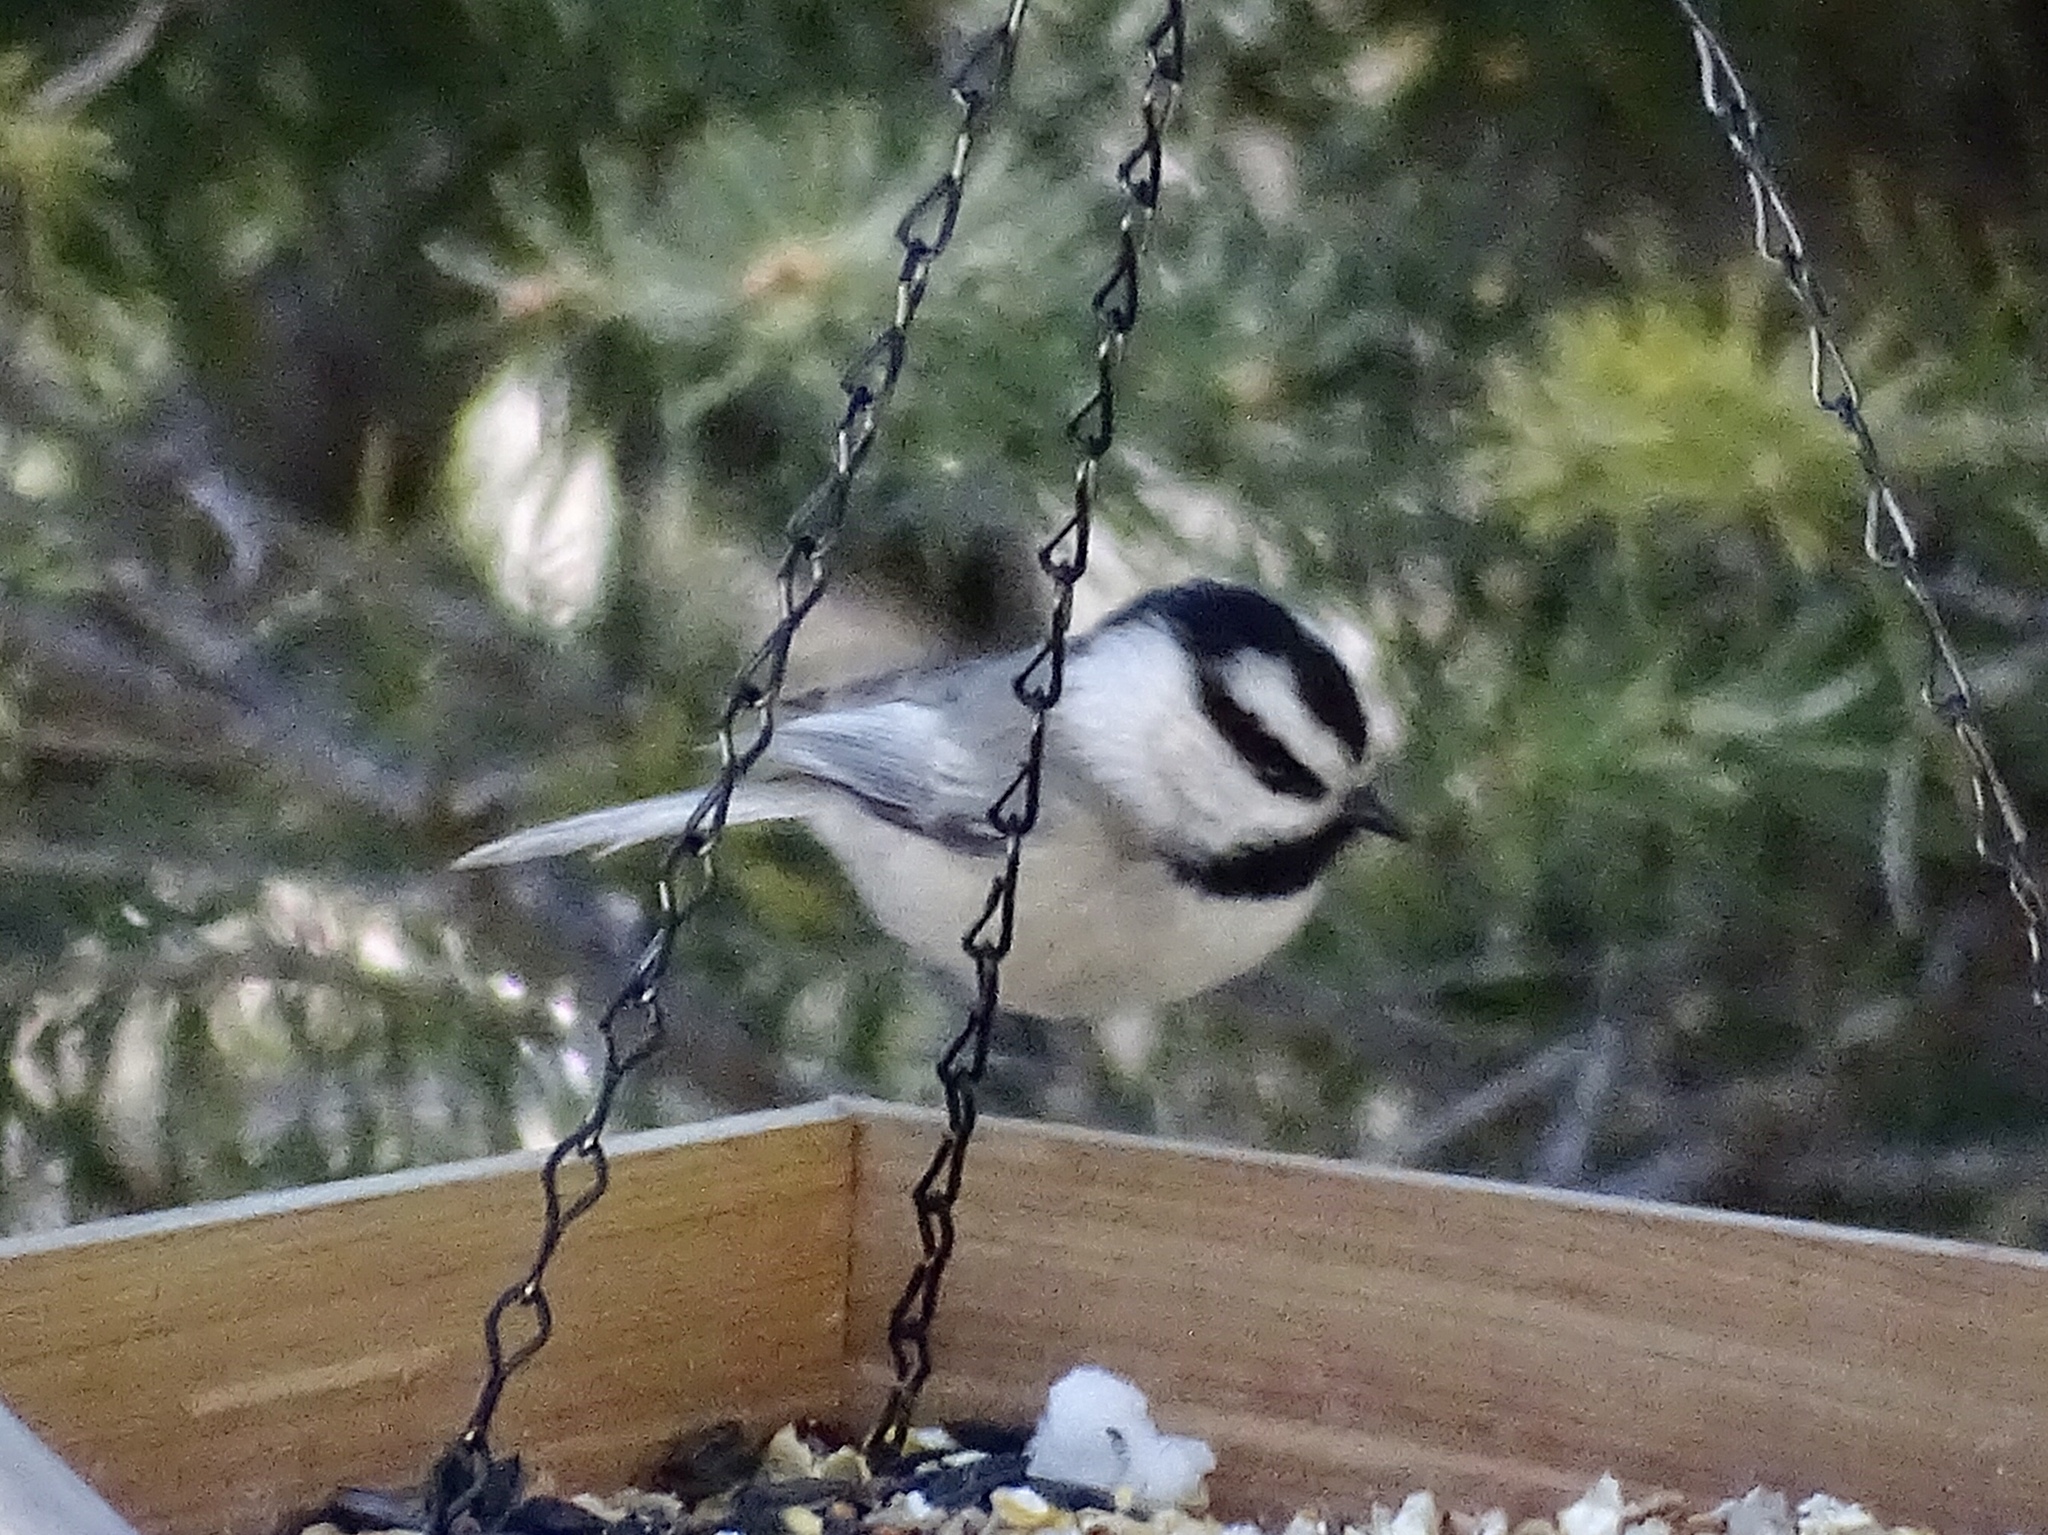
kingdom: Animalia
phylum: Chordata
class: Aves
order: Passeriformes
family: Paridae
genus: Poecile
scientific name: Poecile gambeli
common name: Mountain chickadee
